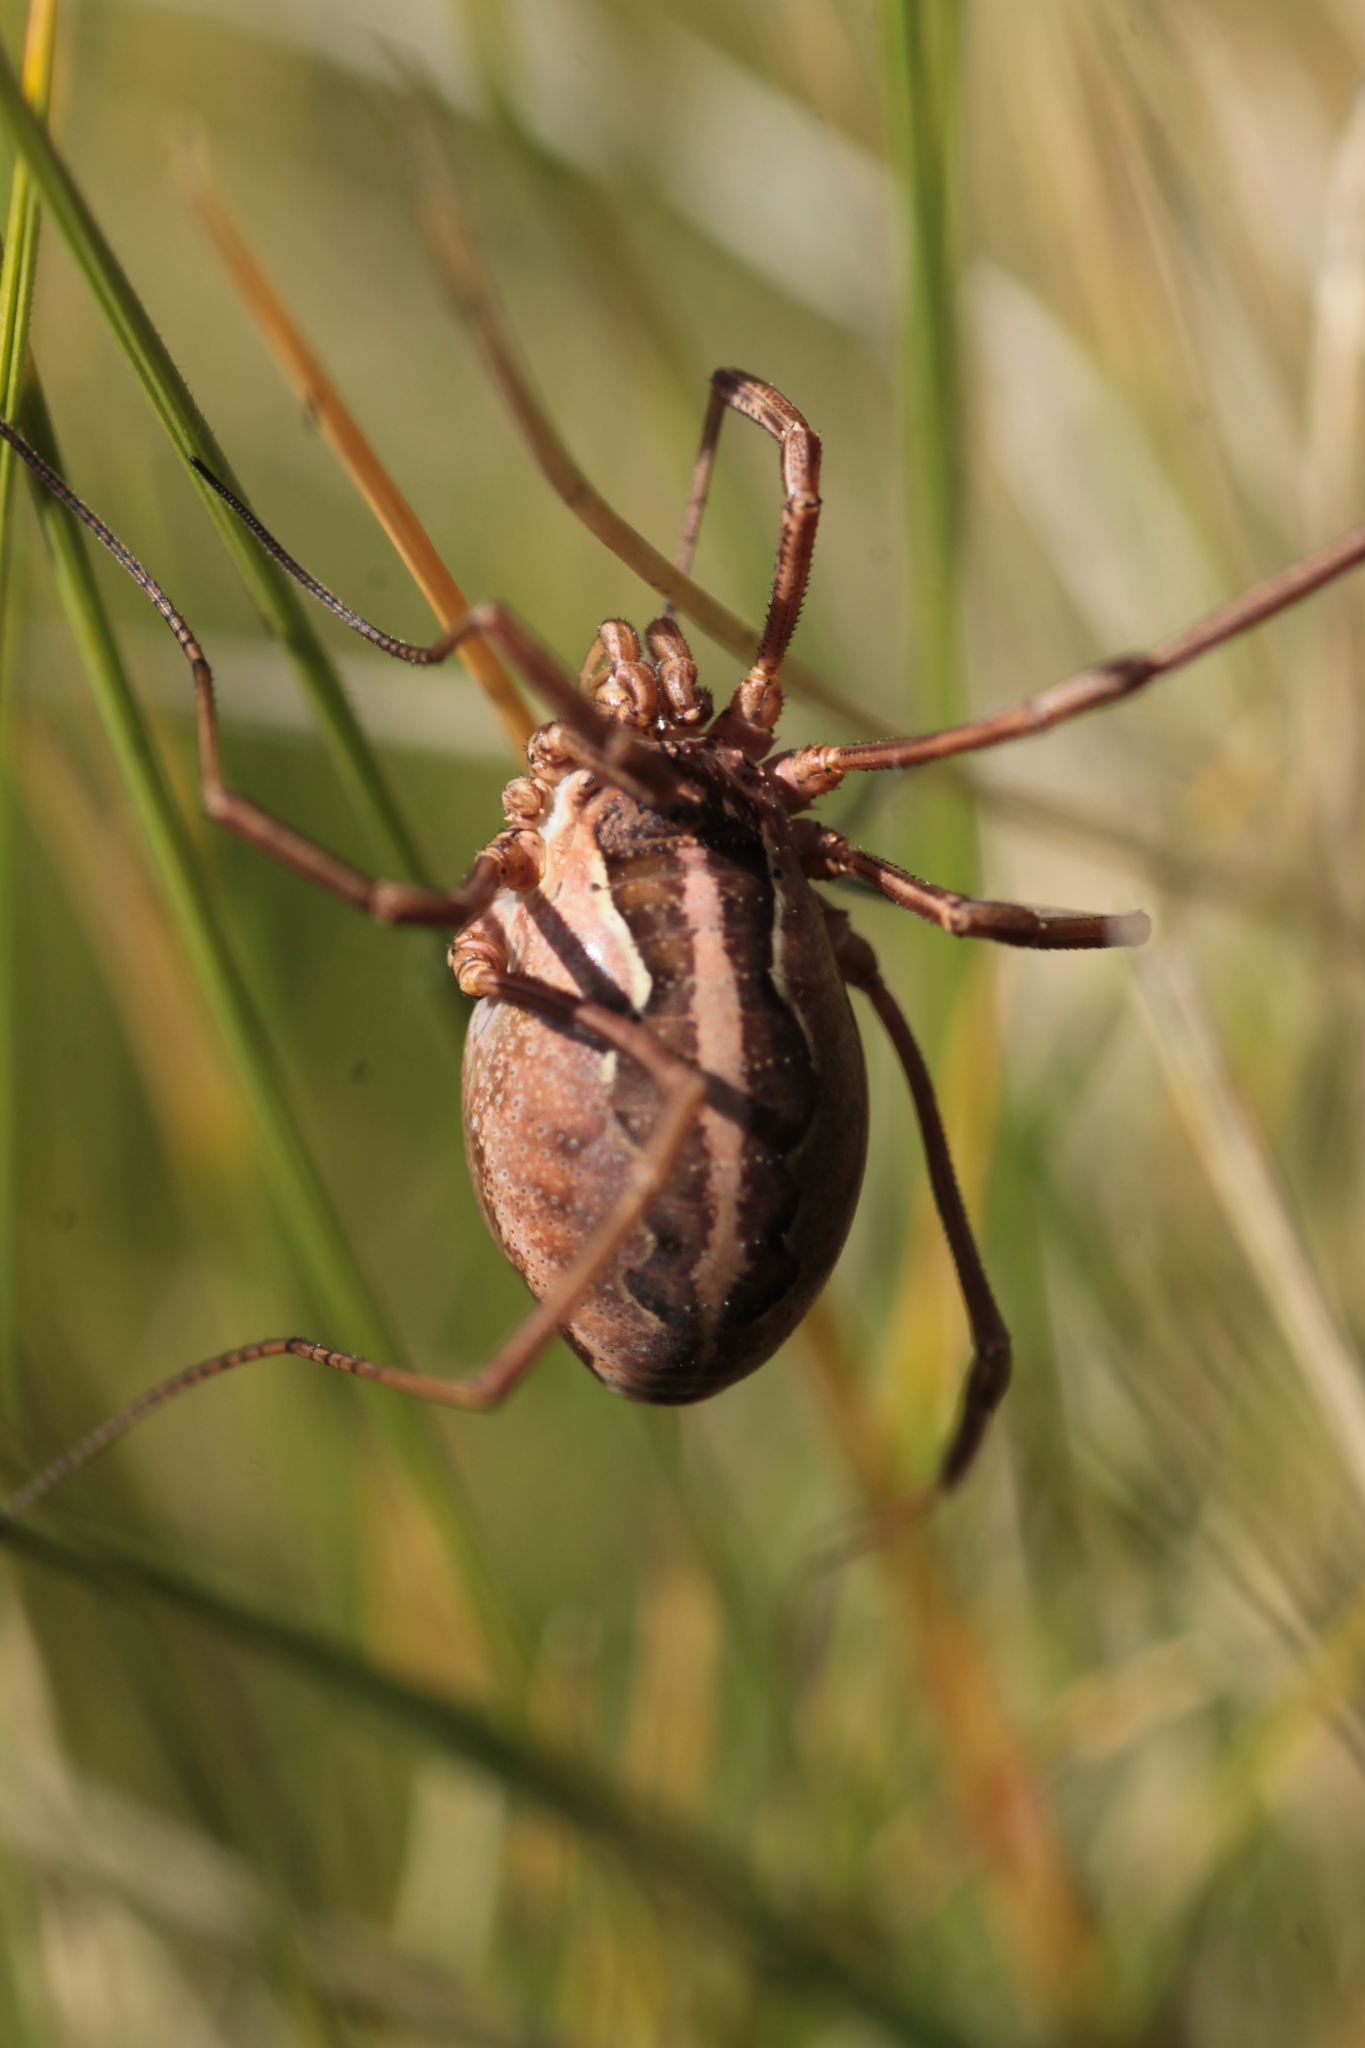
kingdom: Animalia
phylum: Arthropoda
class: Arachnida
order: Opiliones
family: Phalangiidae
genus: Mitopus
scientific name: Mitopus morio
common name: Saddleback harvestman
